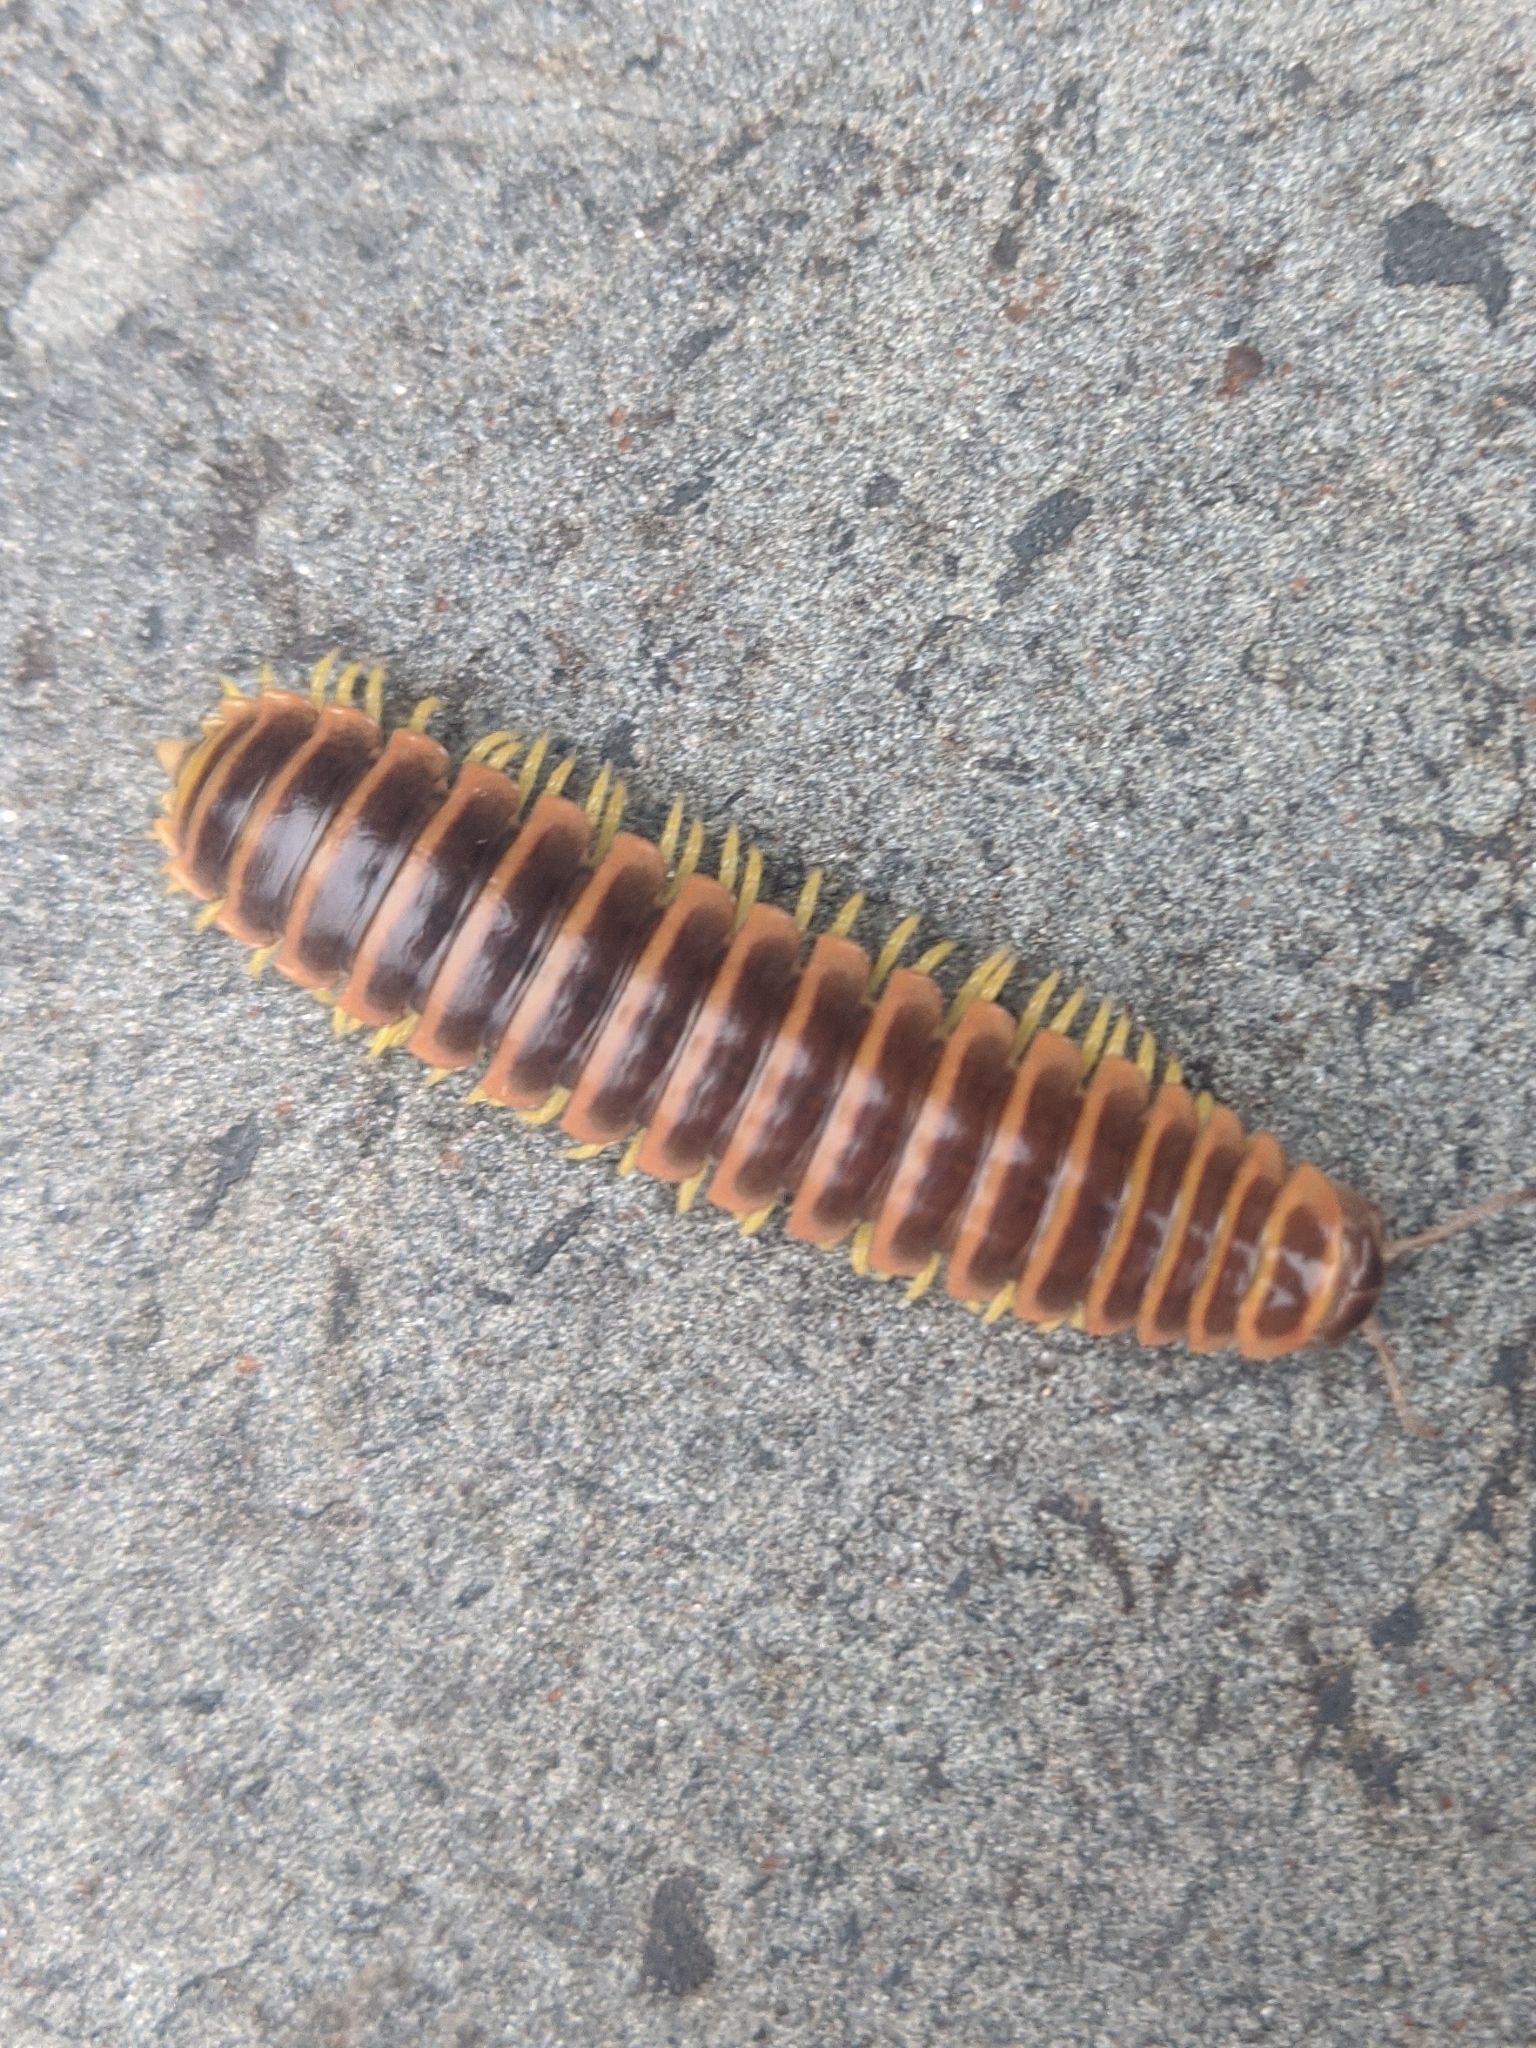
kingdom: Animalia
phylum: Arthropoda
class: Diplopoda
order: Polydesmida
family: Xystodesmidae
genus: Apheloria
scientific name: Apheloria virginiensis
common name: Black-and-gold flat millipede
